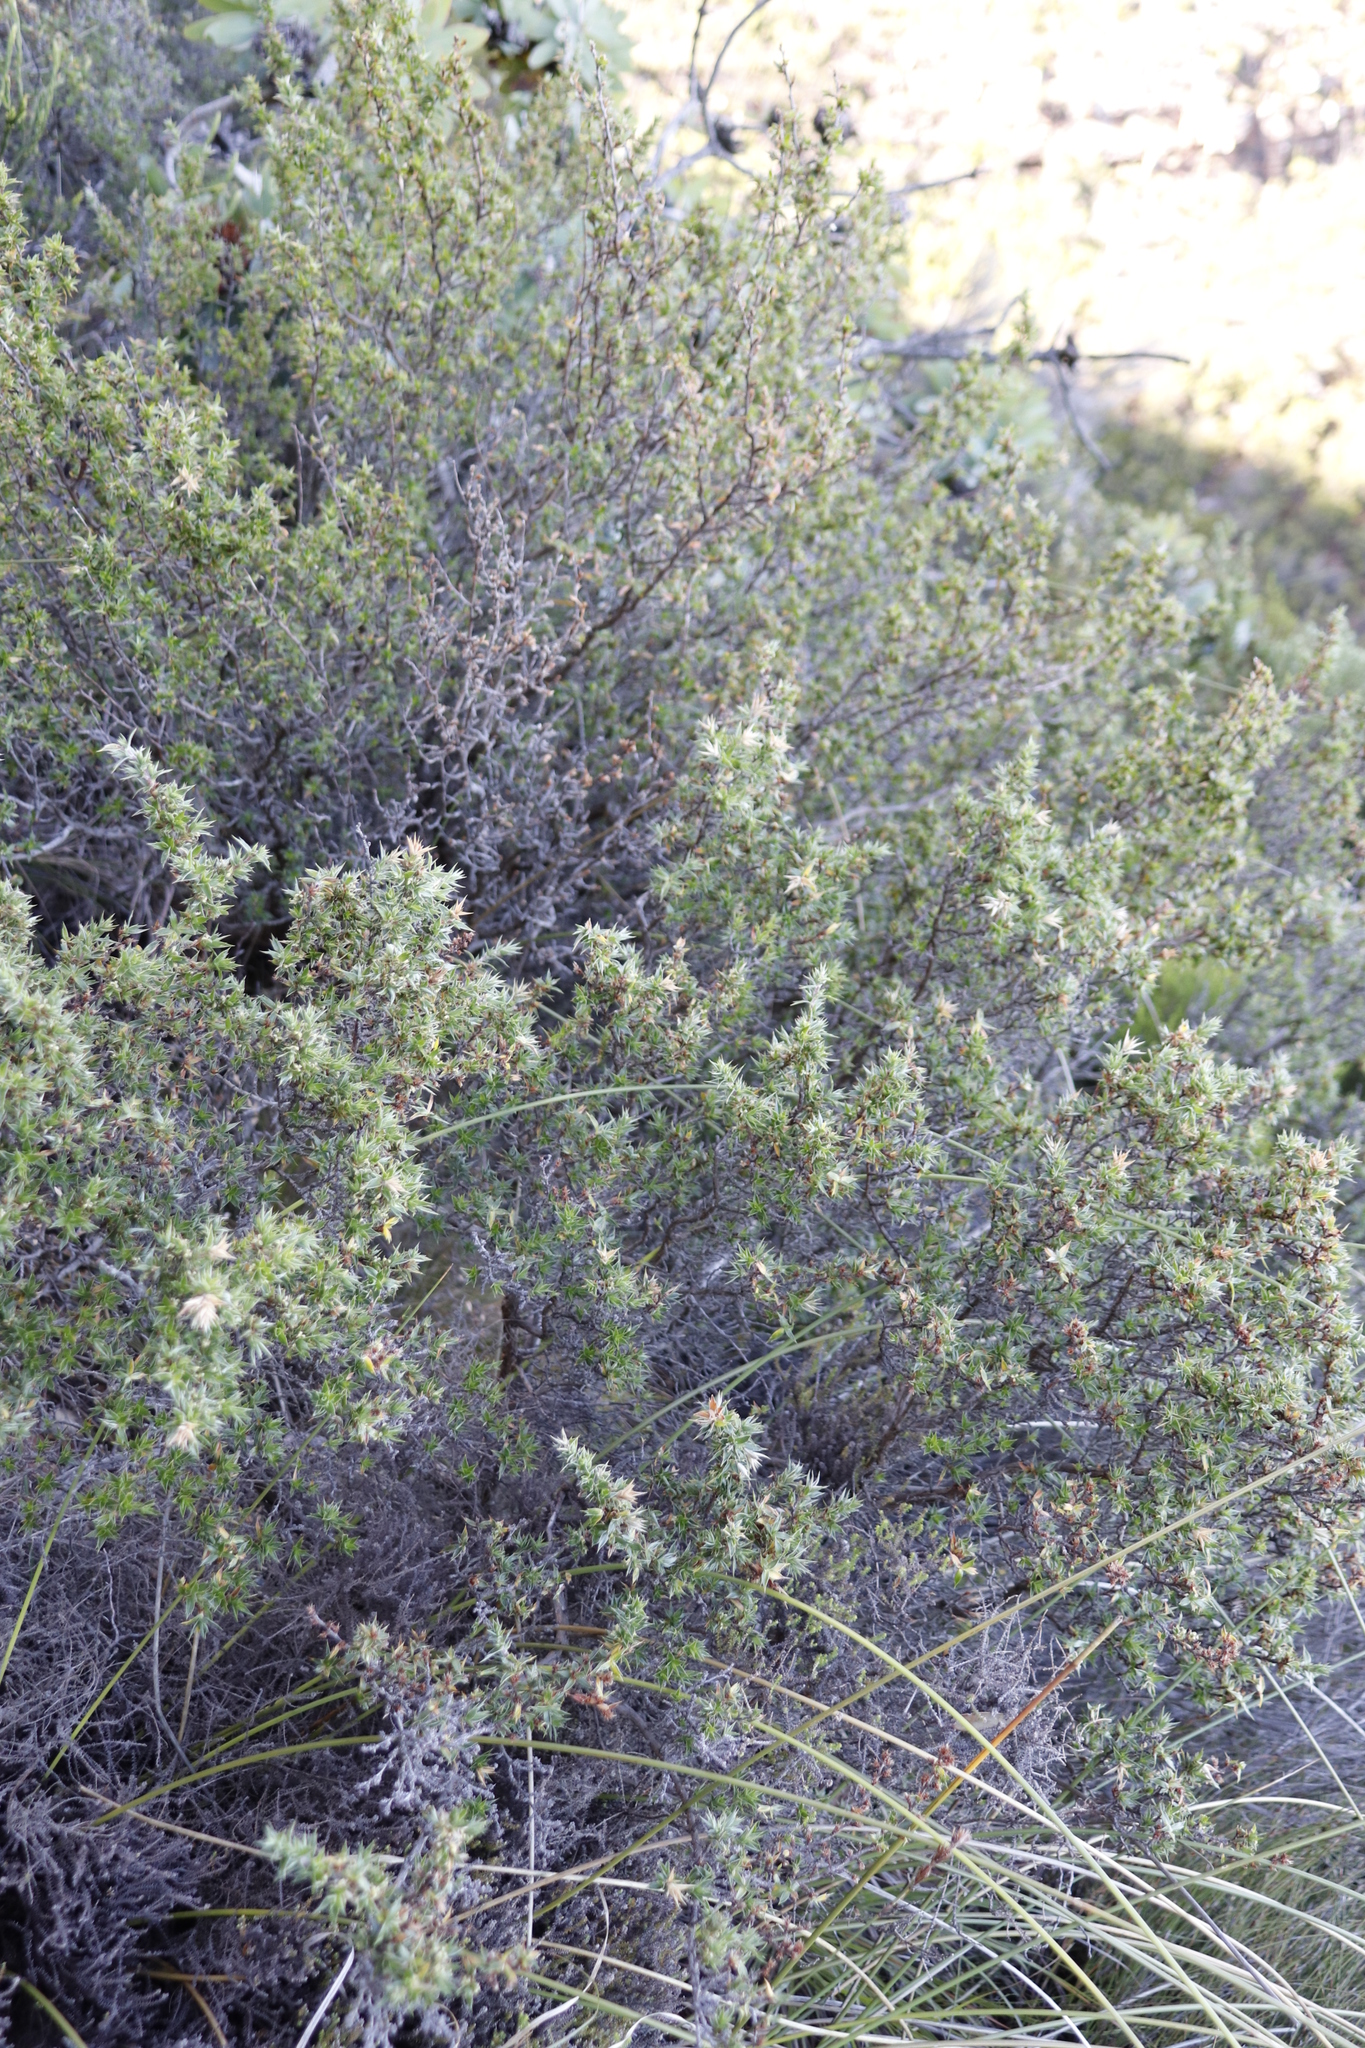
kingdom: Plantae
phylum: Tracheophyta
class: Magnoliopsida
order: Rosales
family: Rosaceae
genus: Cliffortia
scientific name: Cliffortia ruscifolia
